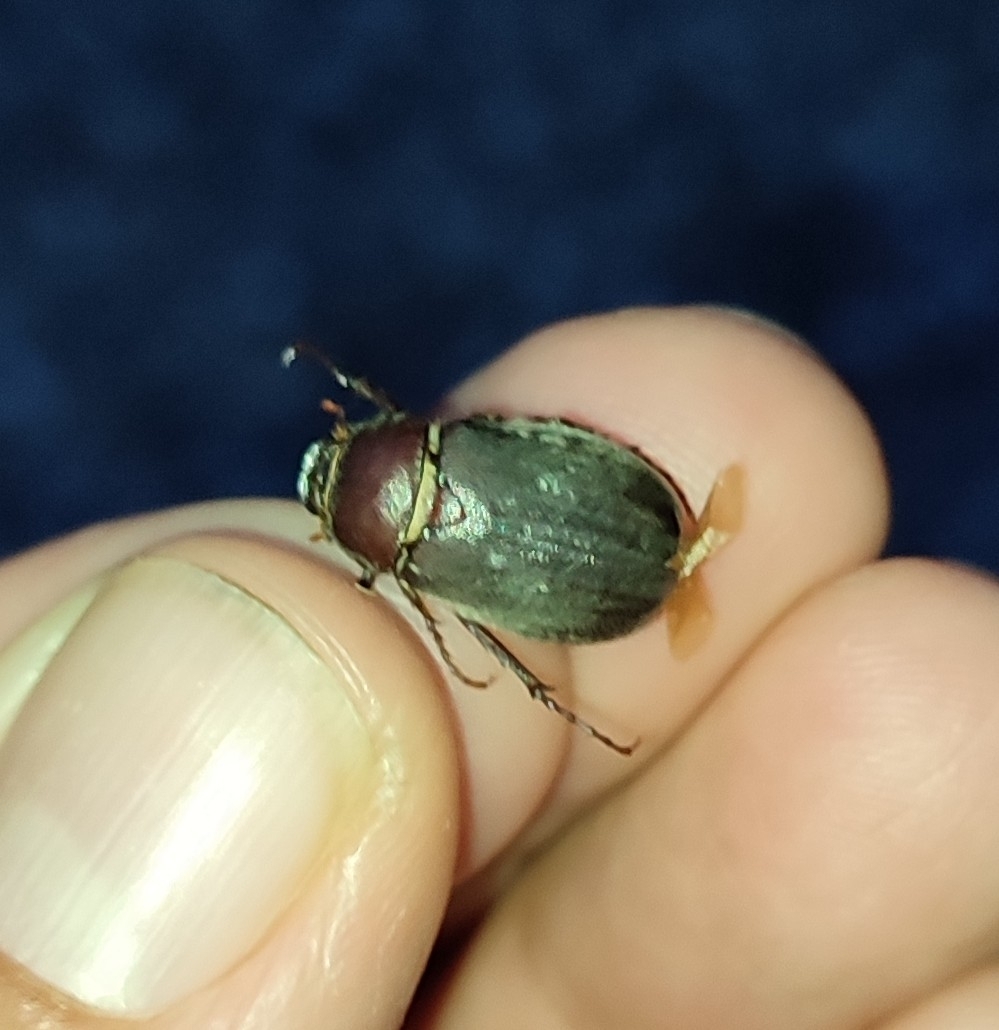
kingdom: Animalia
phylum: Arthropoda
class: Insecta
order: Coleoptera
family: Scarabaeidae
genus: Aplidia
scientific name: Aplidia transversa
